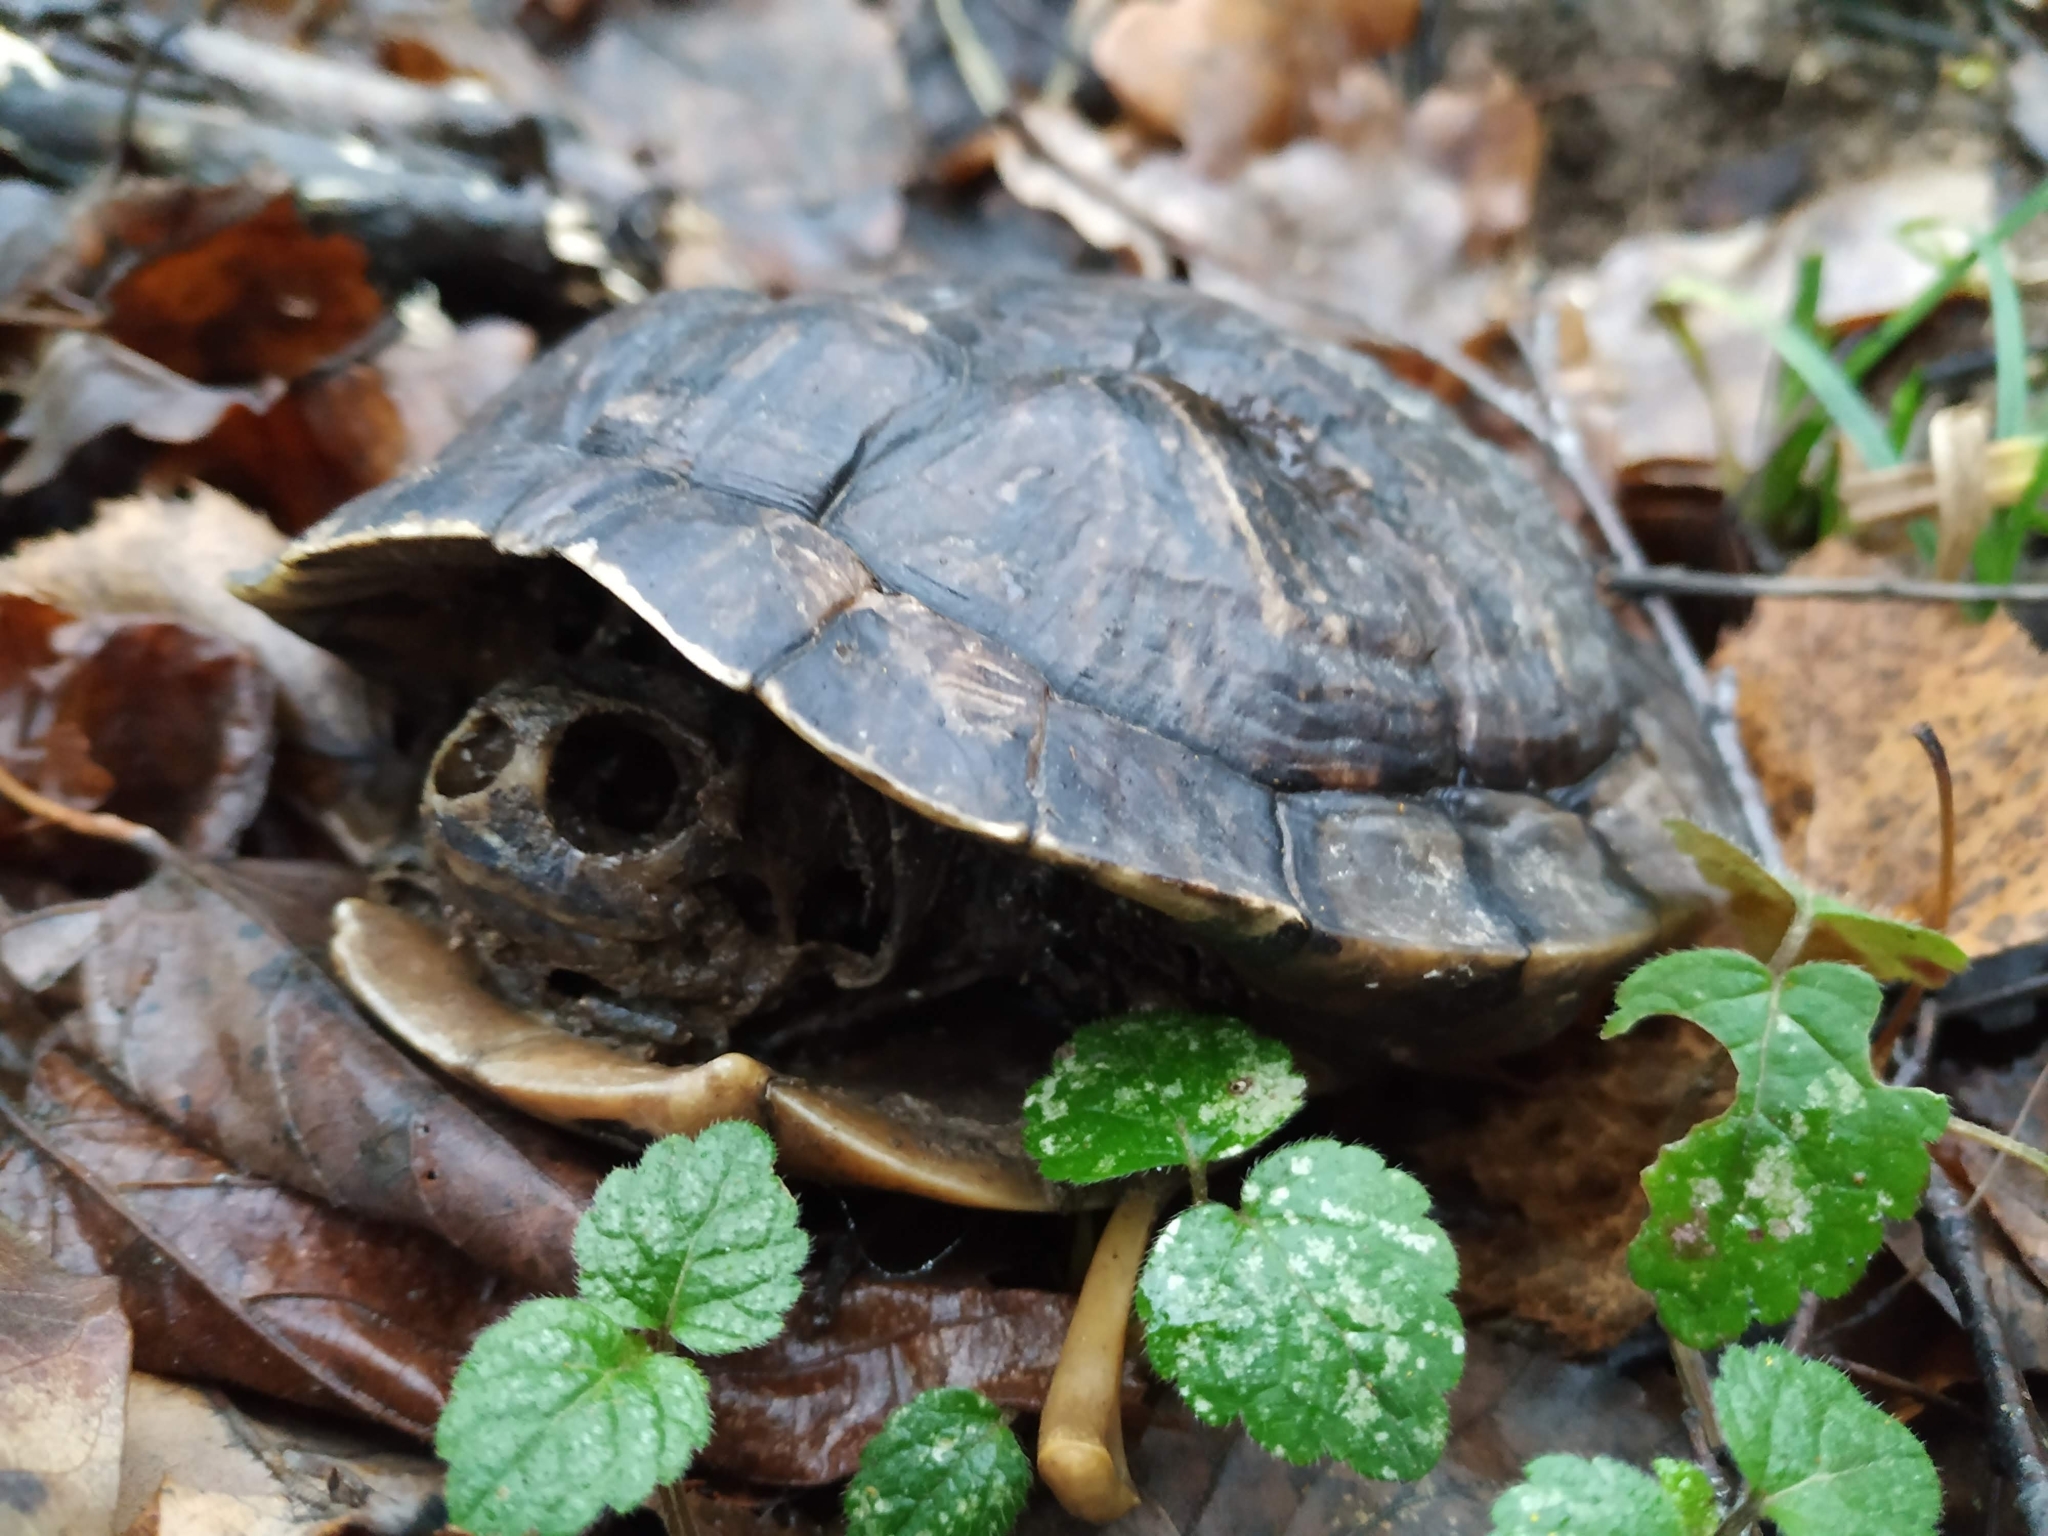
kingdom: Animalia
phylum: Chordata
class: Testudines
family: Emydidae
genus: Trachemys
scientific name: Trachemys scripta
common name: Slider
